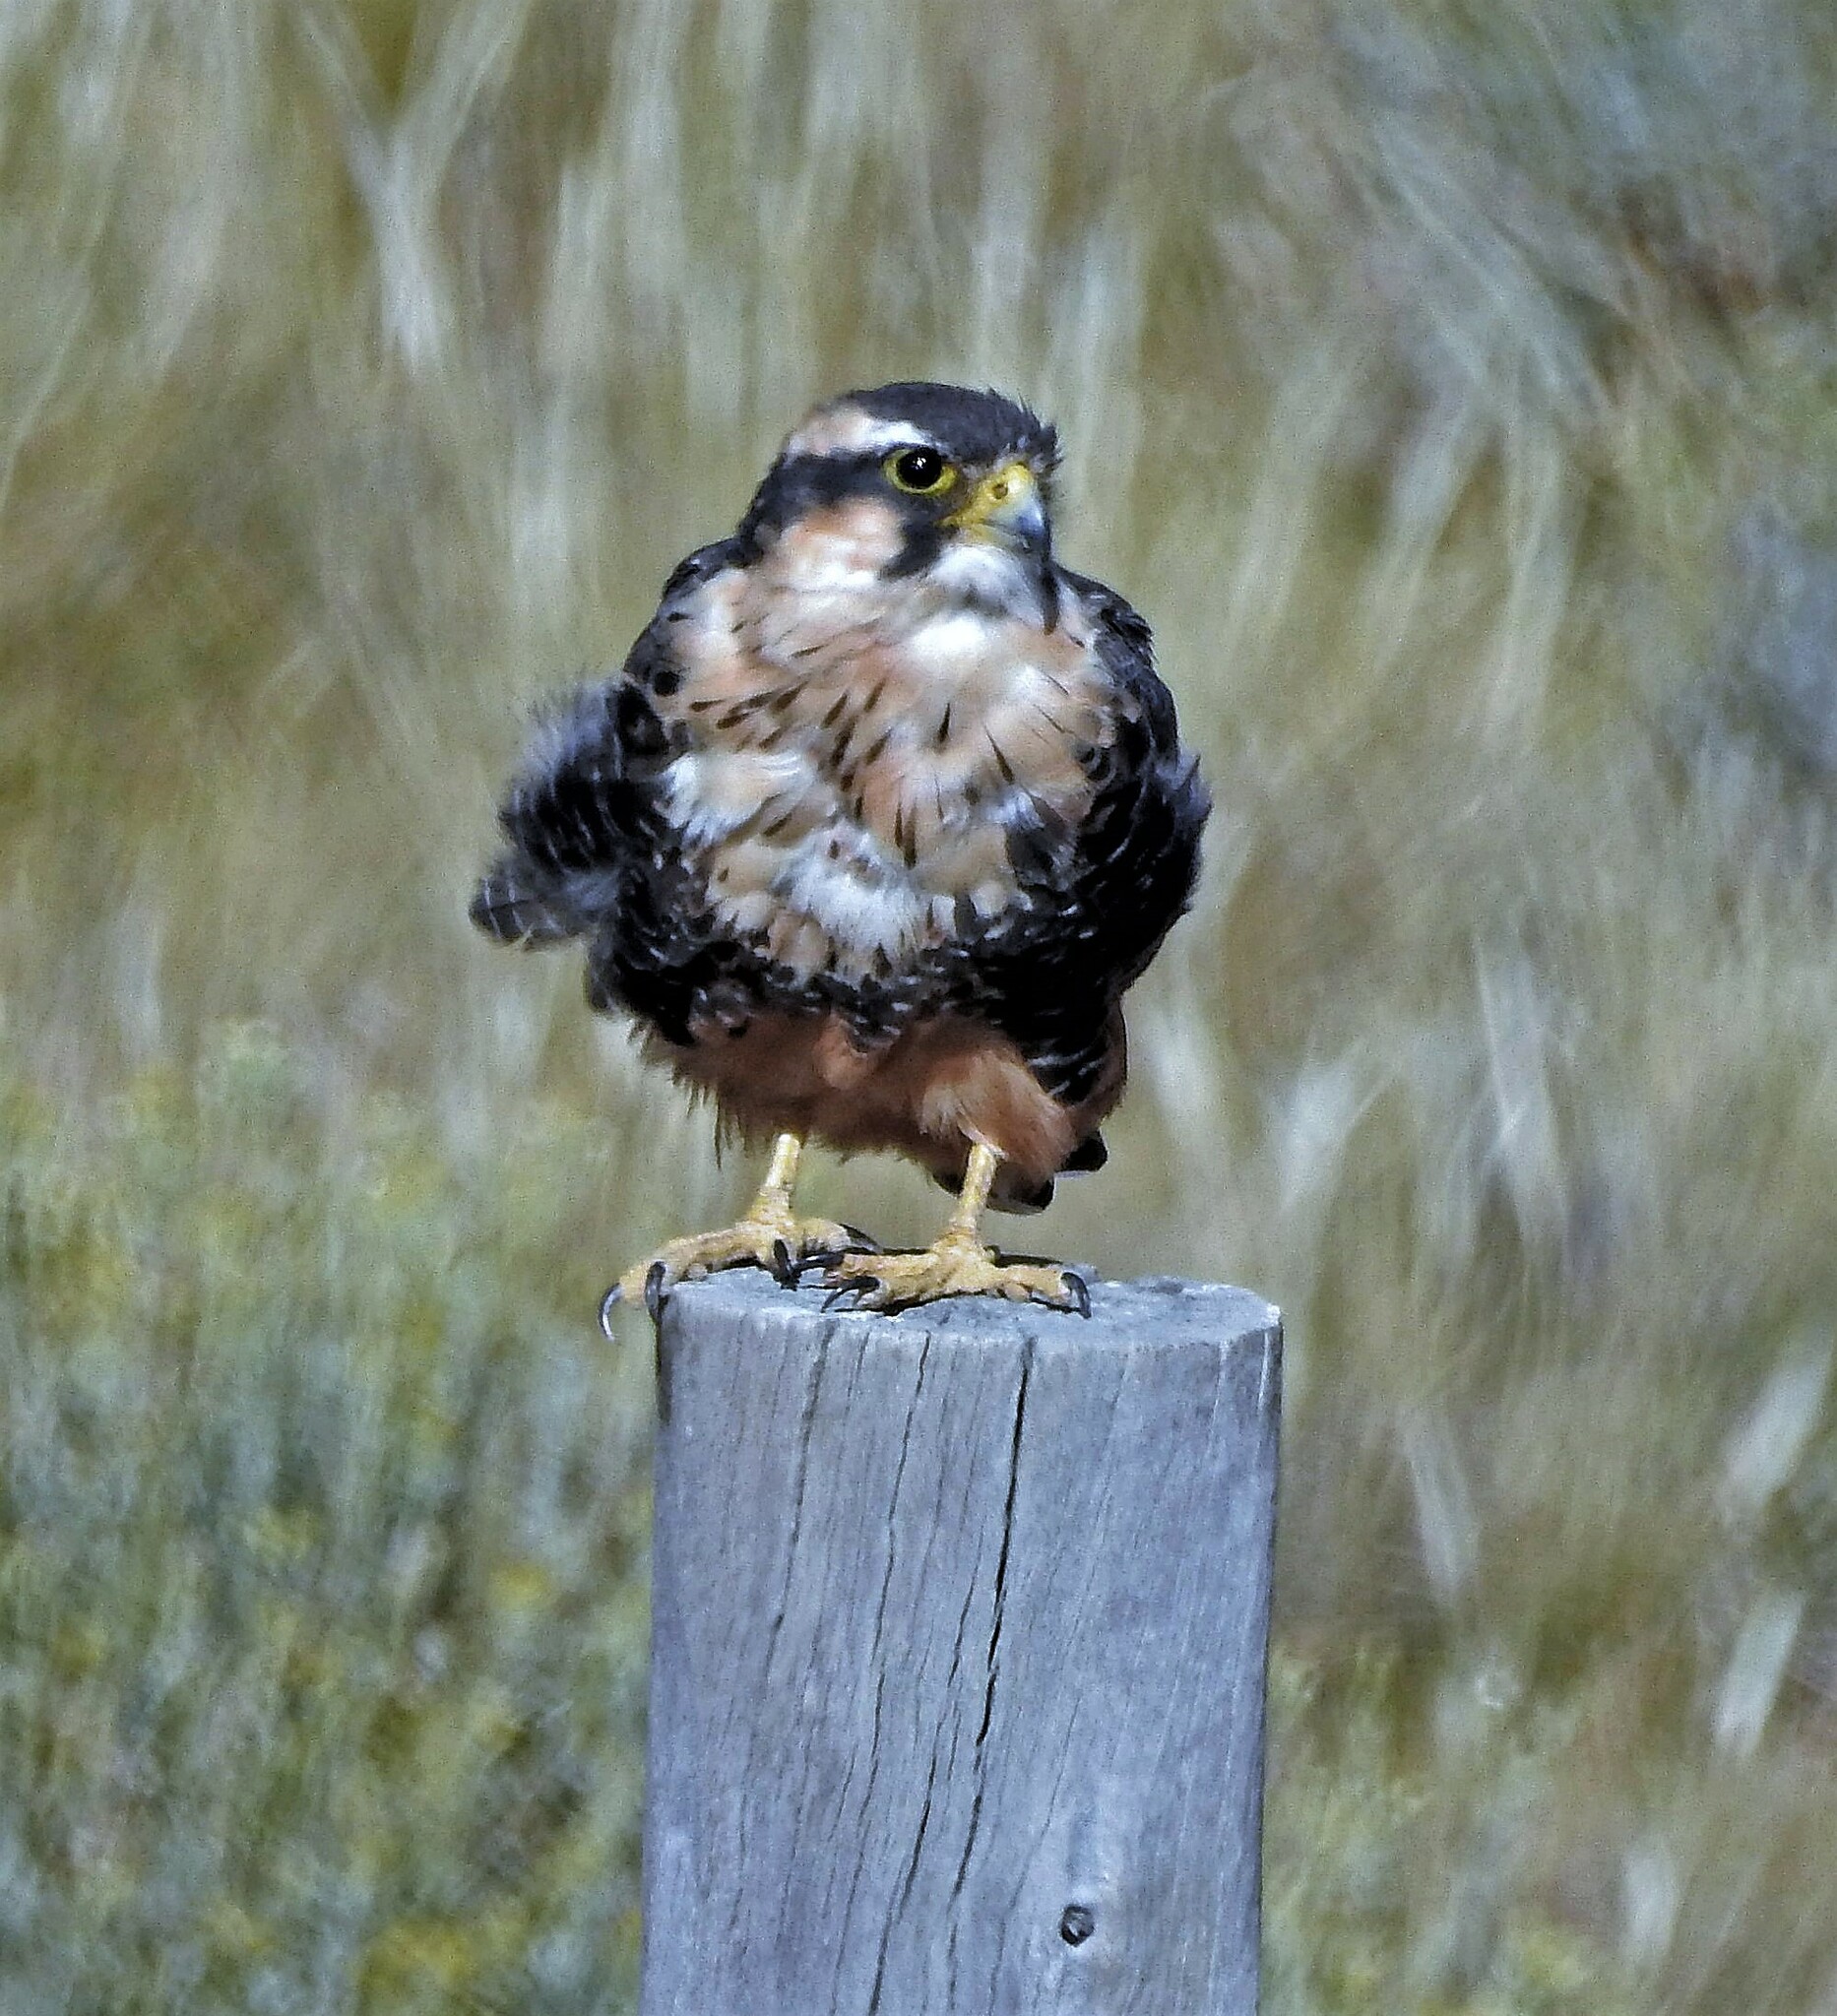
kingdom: Animalia
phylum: Chordata
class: Aves
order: Falconiformes
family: Falconidae
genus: Falco
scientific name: Falco femoralis
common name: Aplomado falcon
